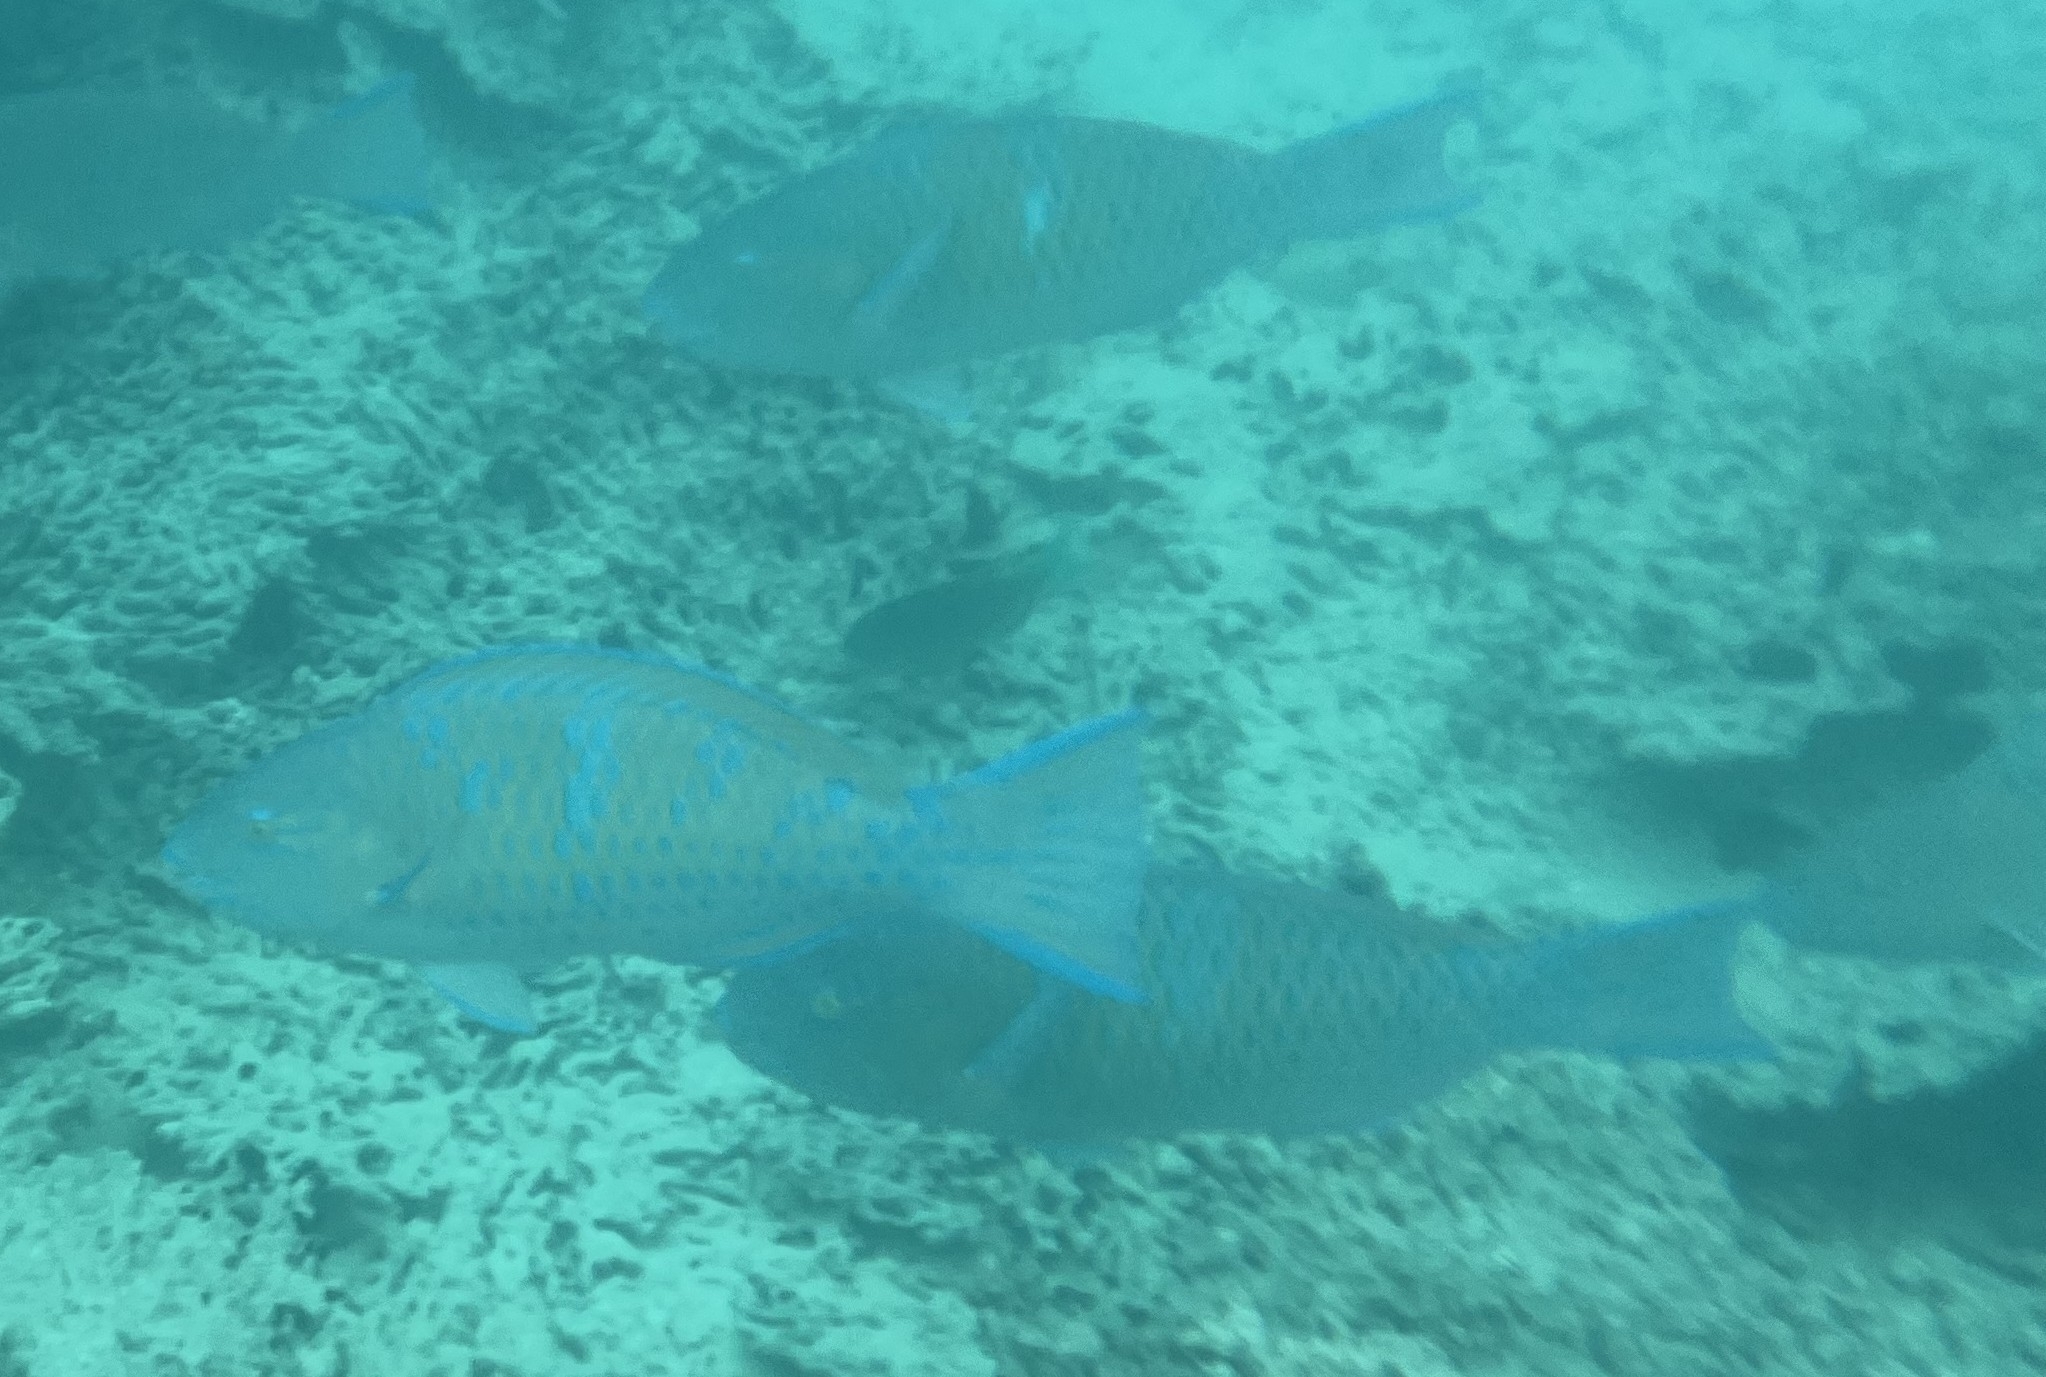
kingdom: Animalia
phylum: Chordata
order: Perciformes
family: Scaridae
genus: Scarus
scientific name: Scarus ghobban
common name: Blue-barred parrotfish
